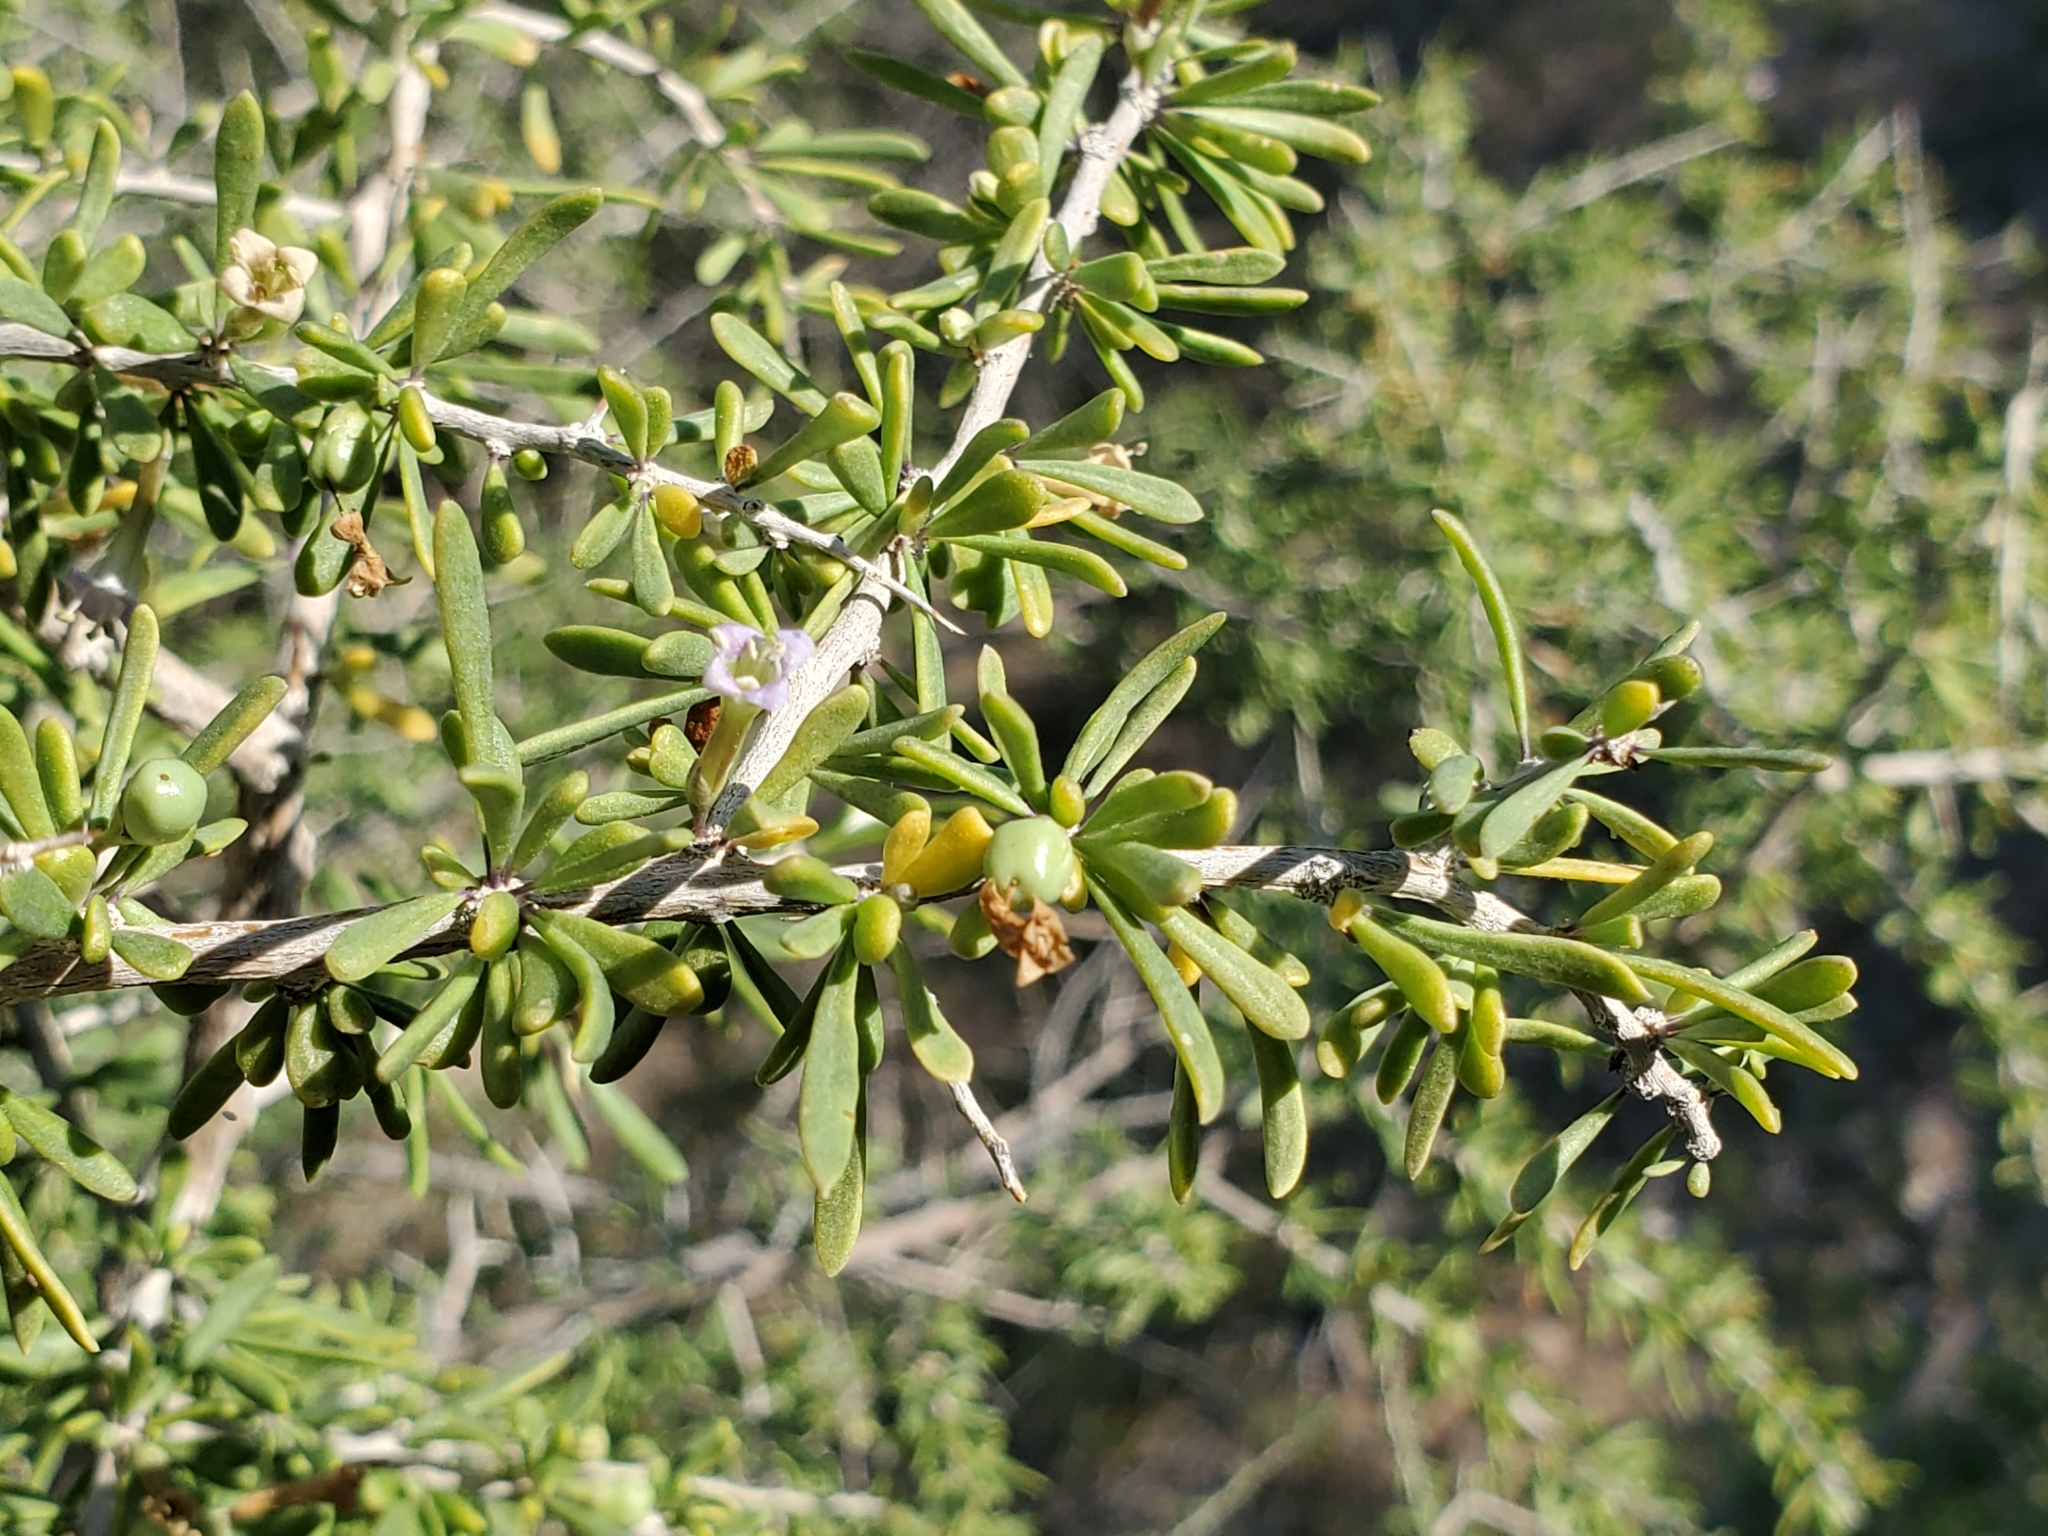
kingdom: Plantae
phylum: Tracheophyta
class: Magnoliopsida
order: Solanales
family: Solanaceae
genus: Lycium
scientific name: Lycium andersonii
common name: Water-jacket
